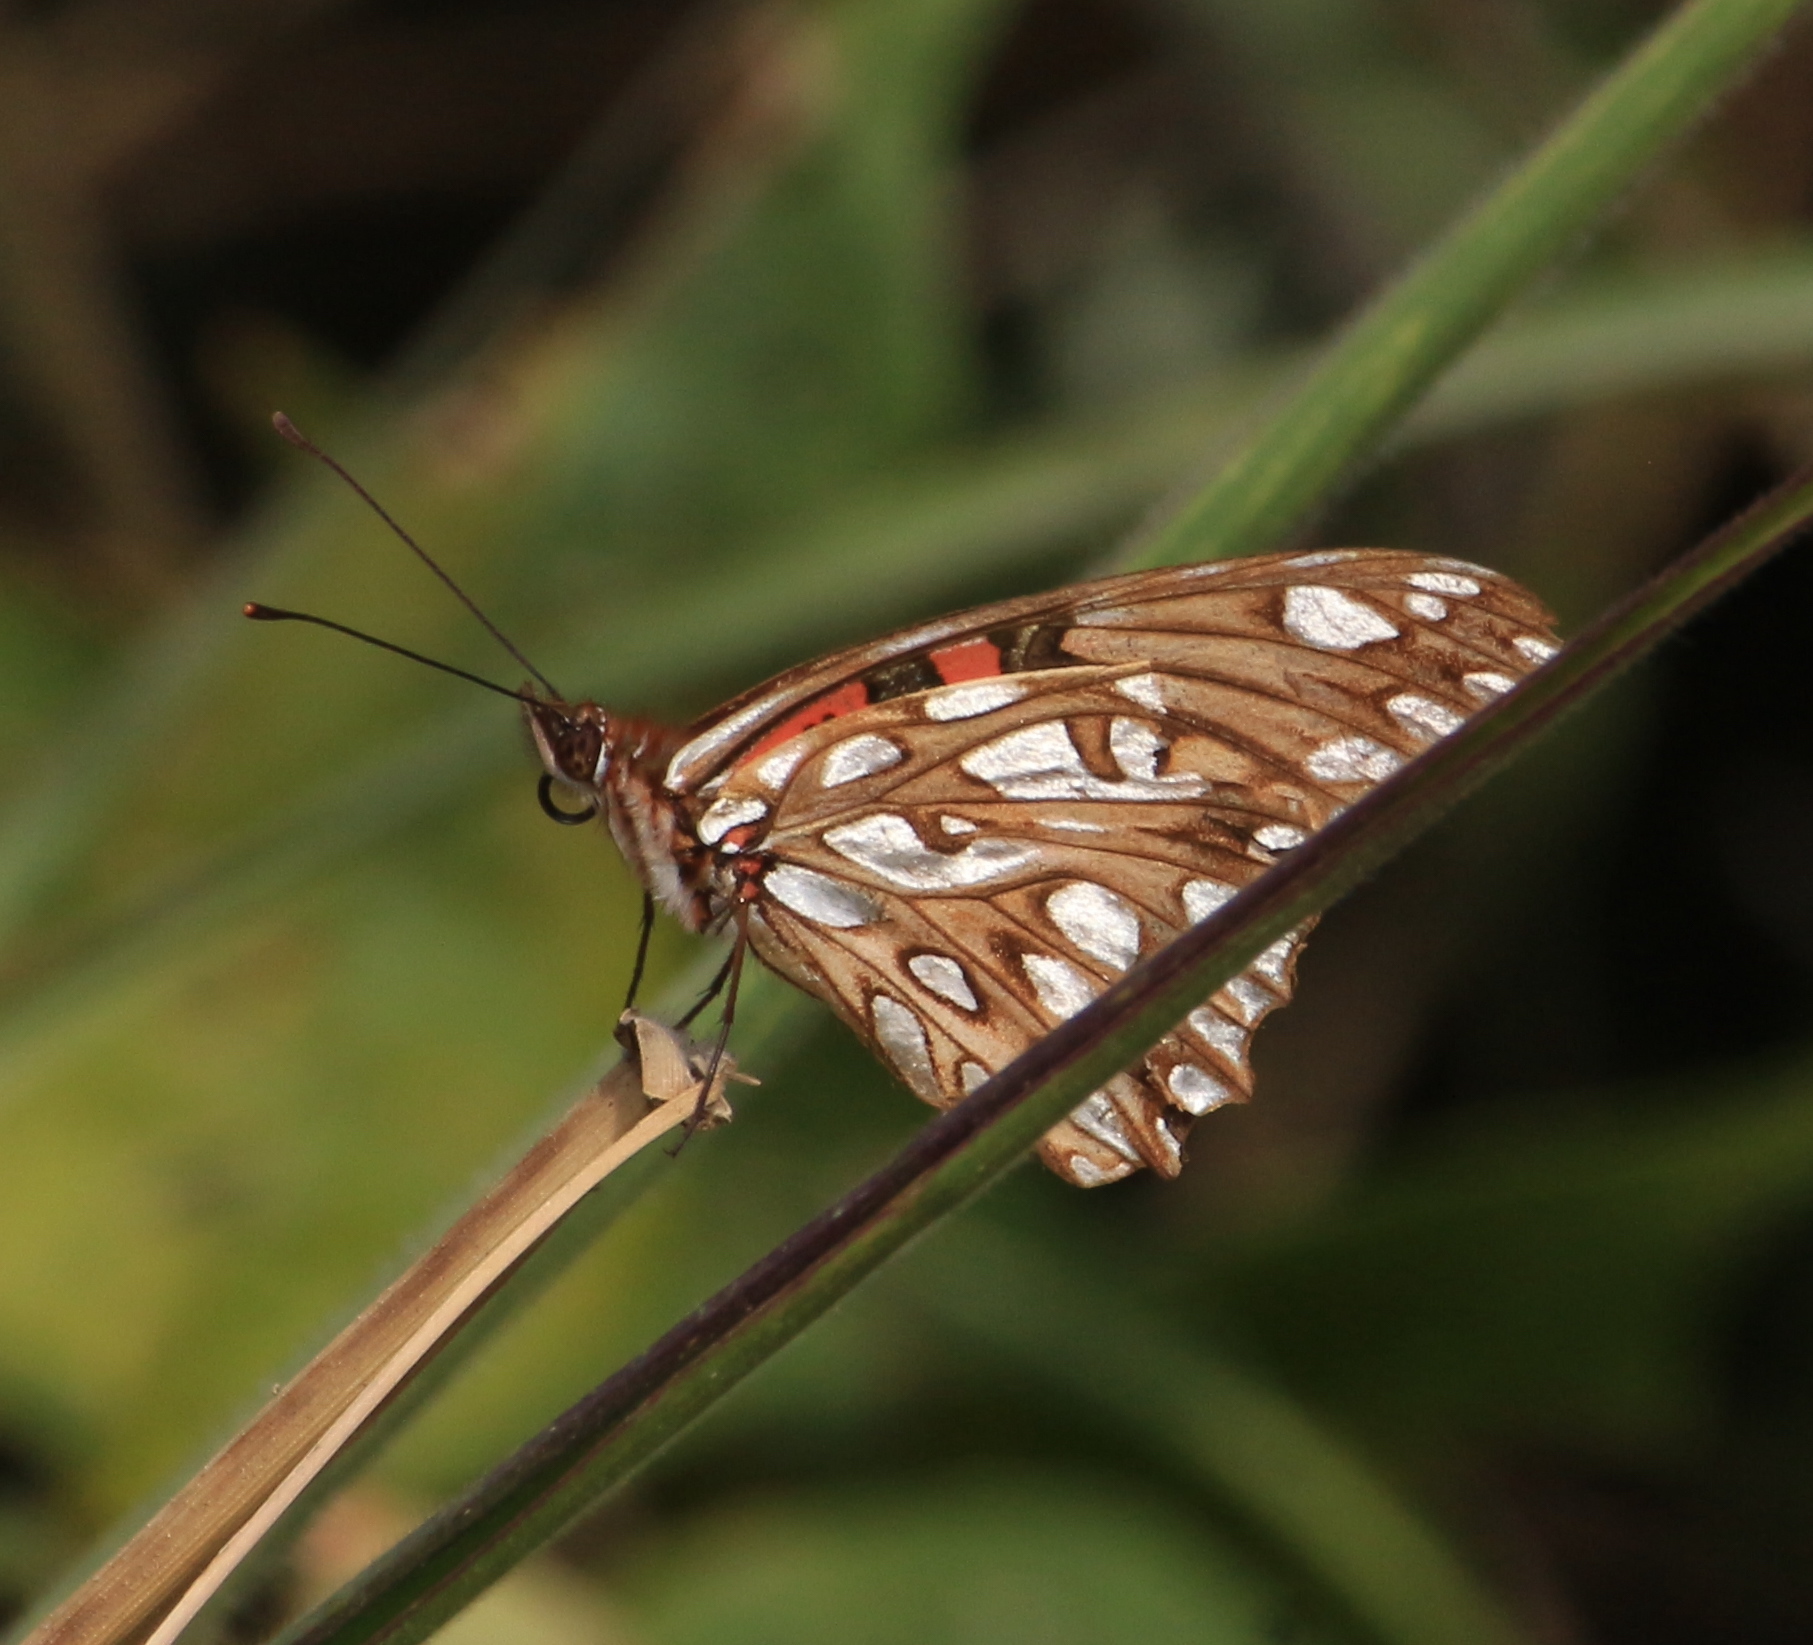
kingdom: Animalia
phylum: Arthropoda
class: Insecta
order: Lepidoptera
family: Nymphalidae
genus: Dione
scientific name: Dione vanillae
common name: Gulf fritillary
